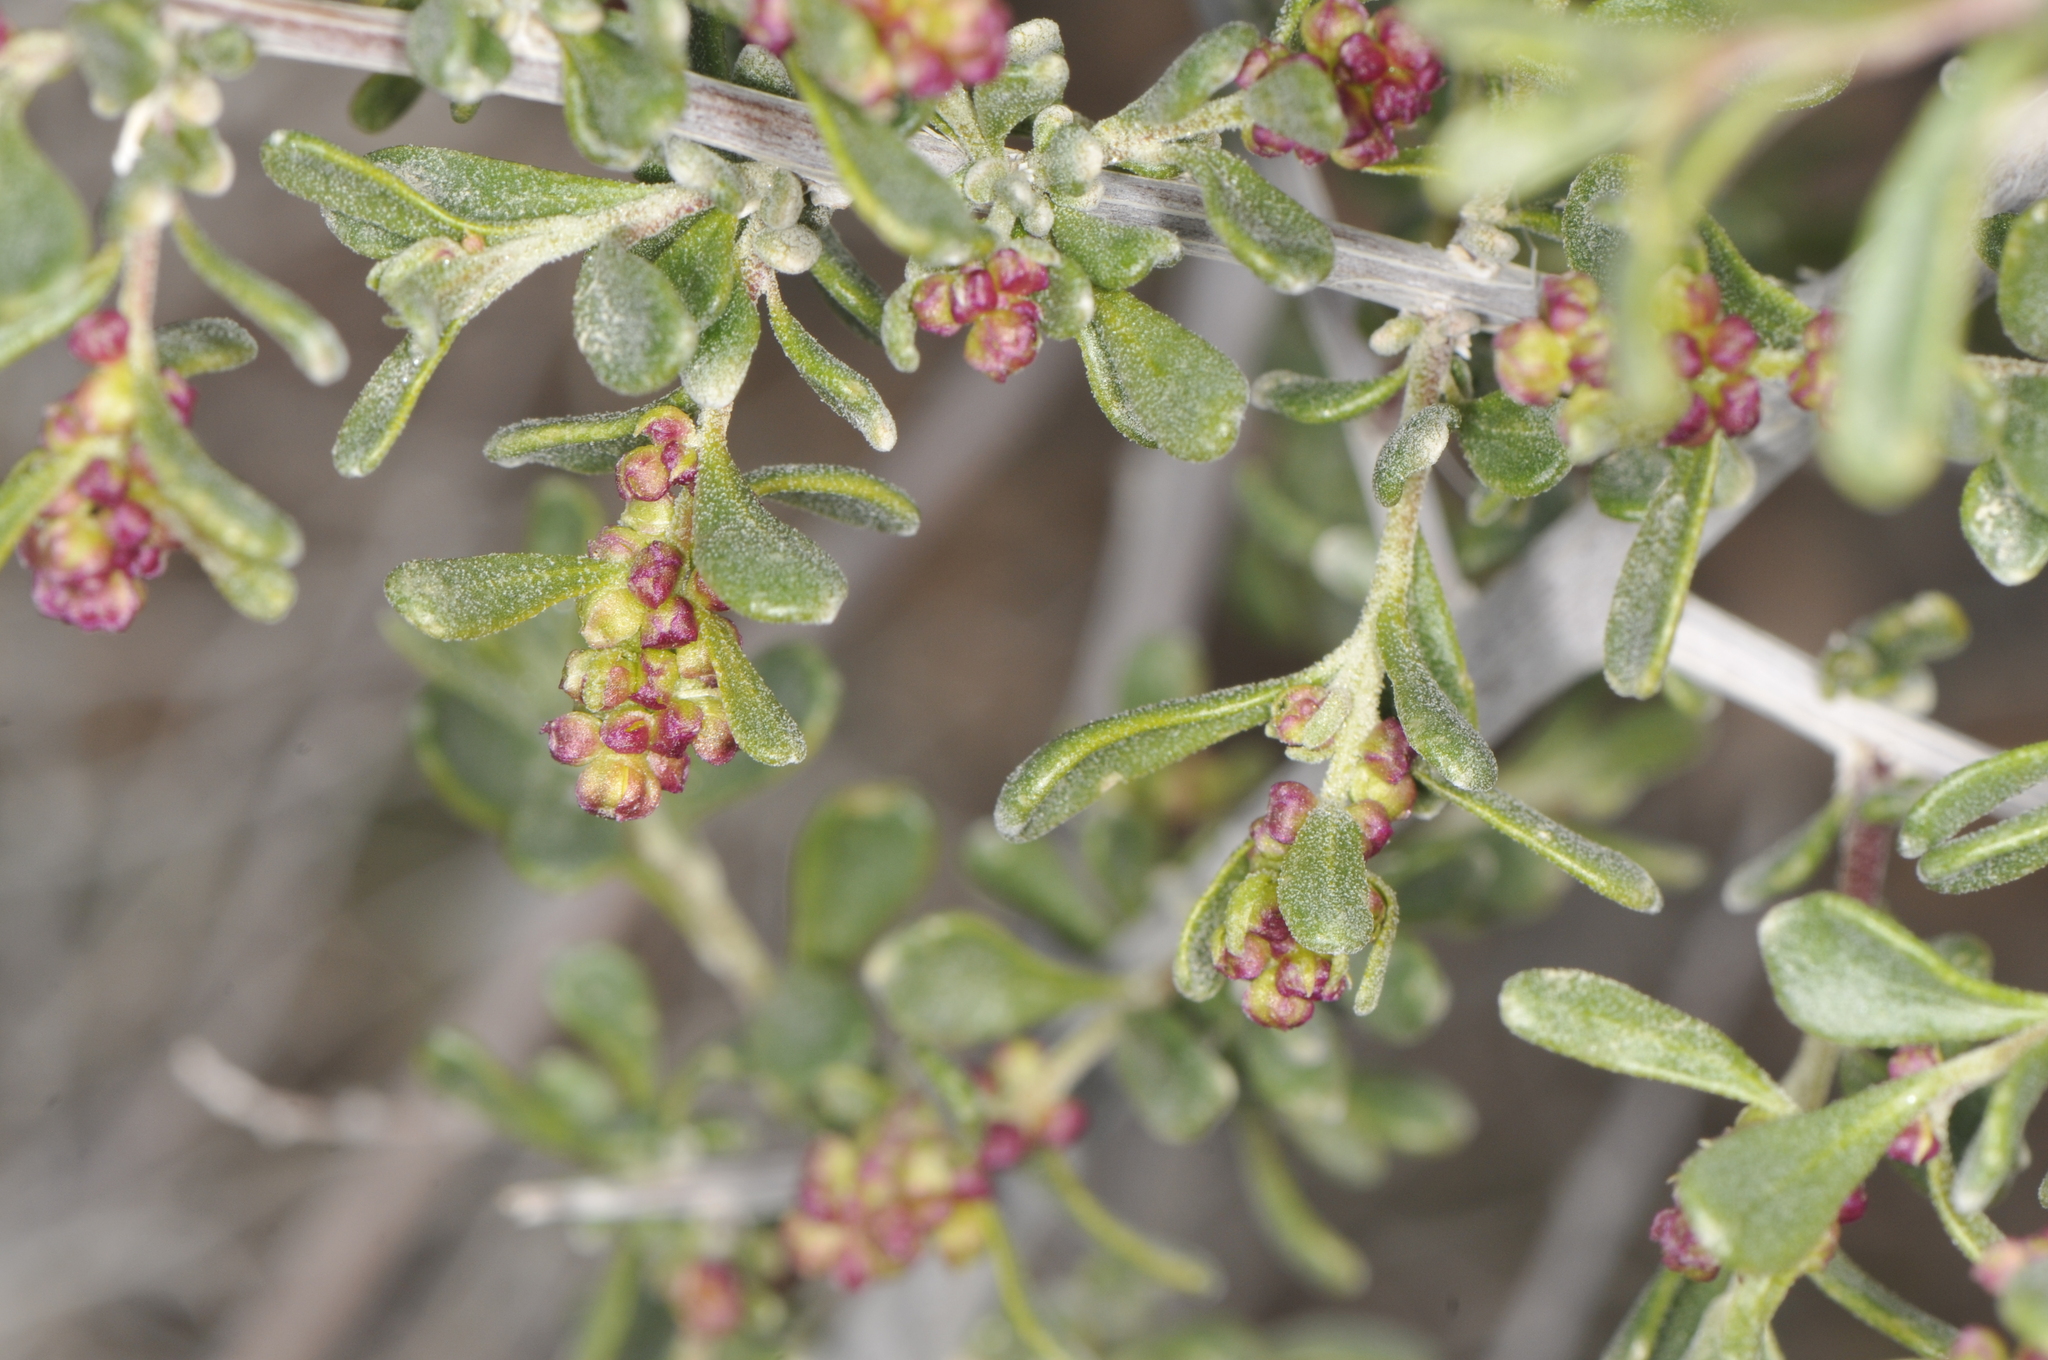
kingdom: Plantae
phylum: Tracheophyta
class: Magnoliopsida
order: Caryophyllales
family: Amaranthaceae
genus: Grayia
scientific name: Grayia spinosa
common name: Spiny hopsage
